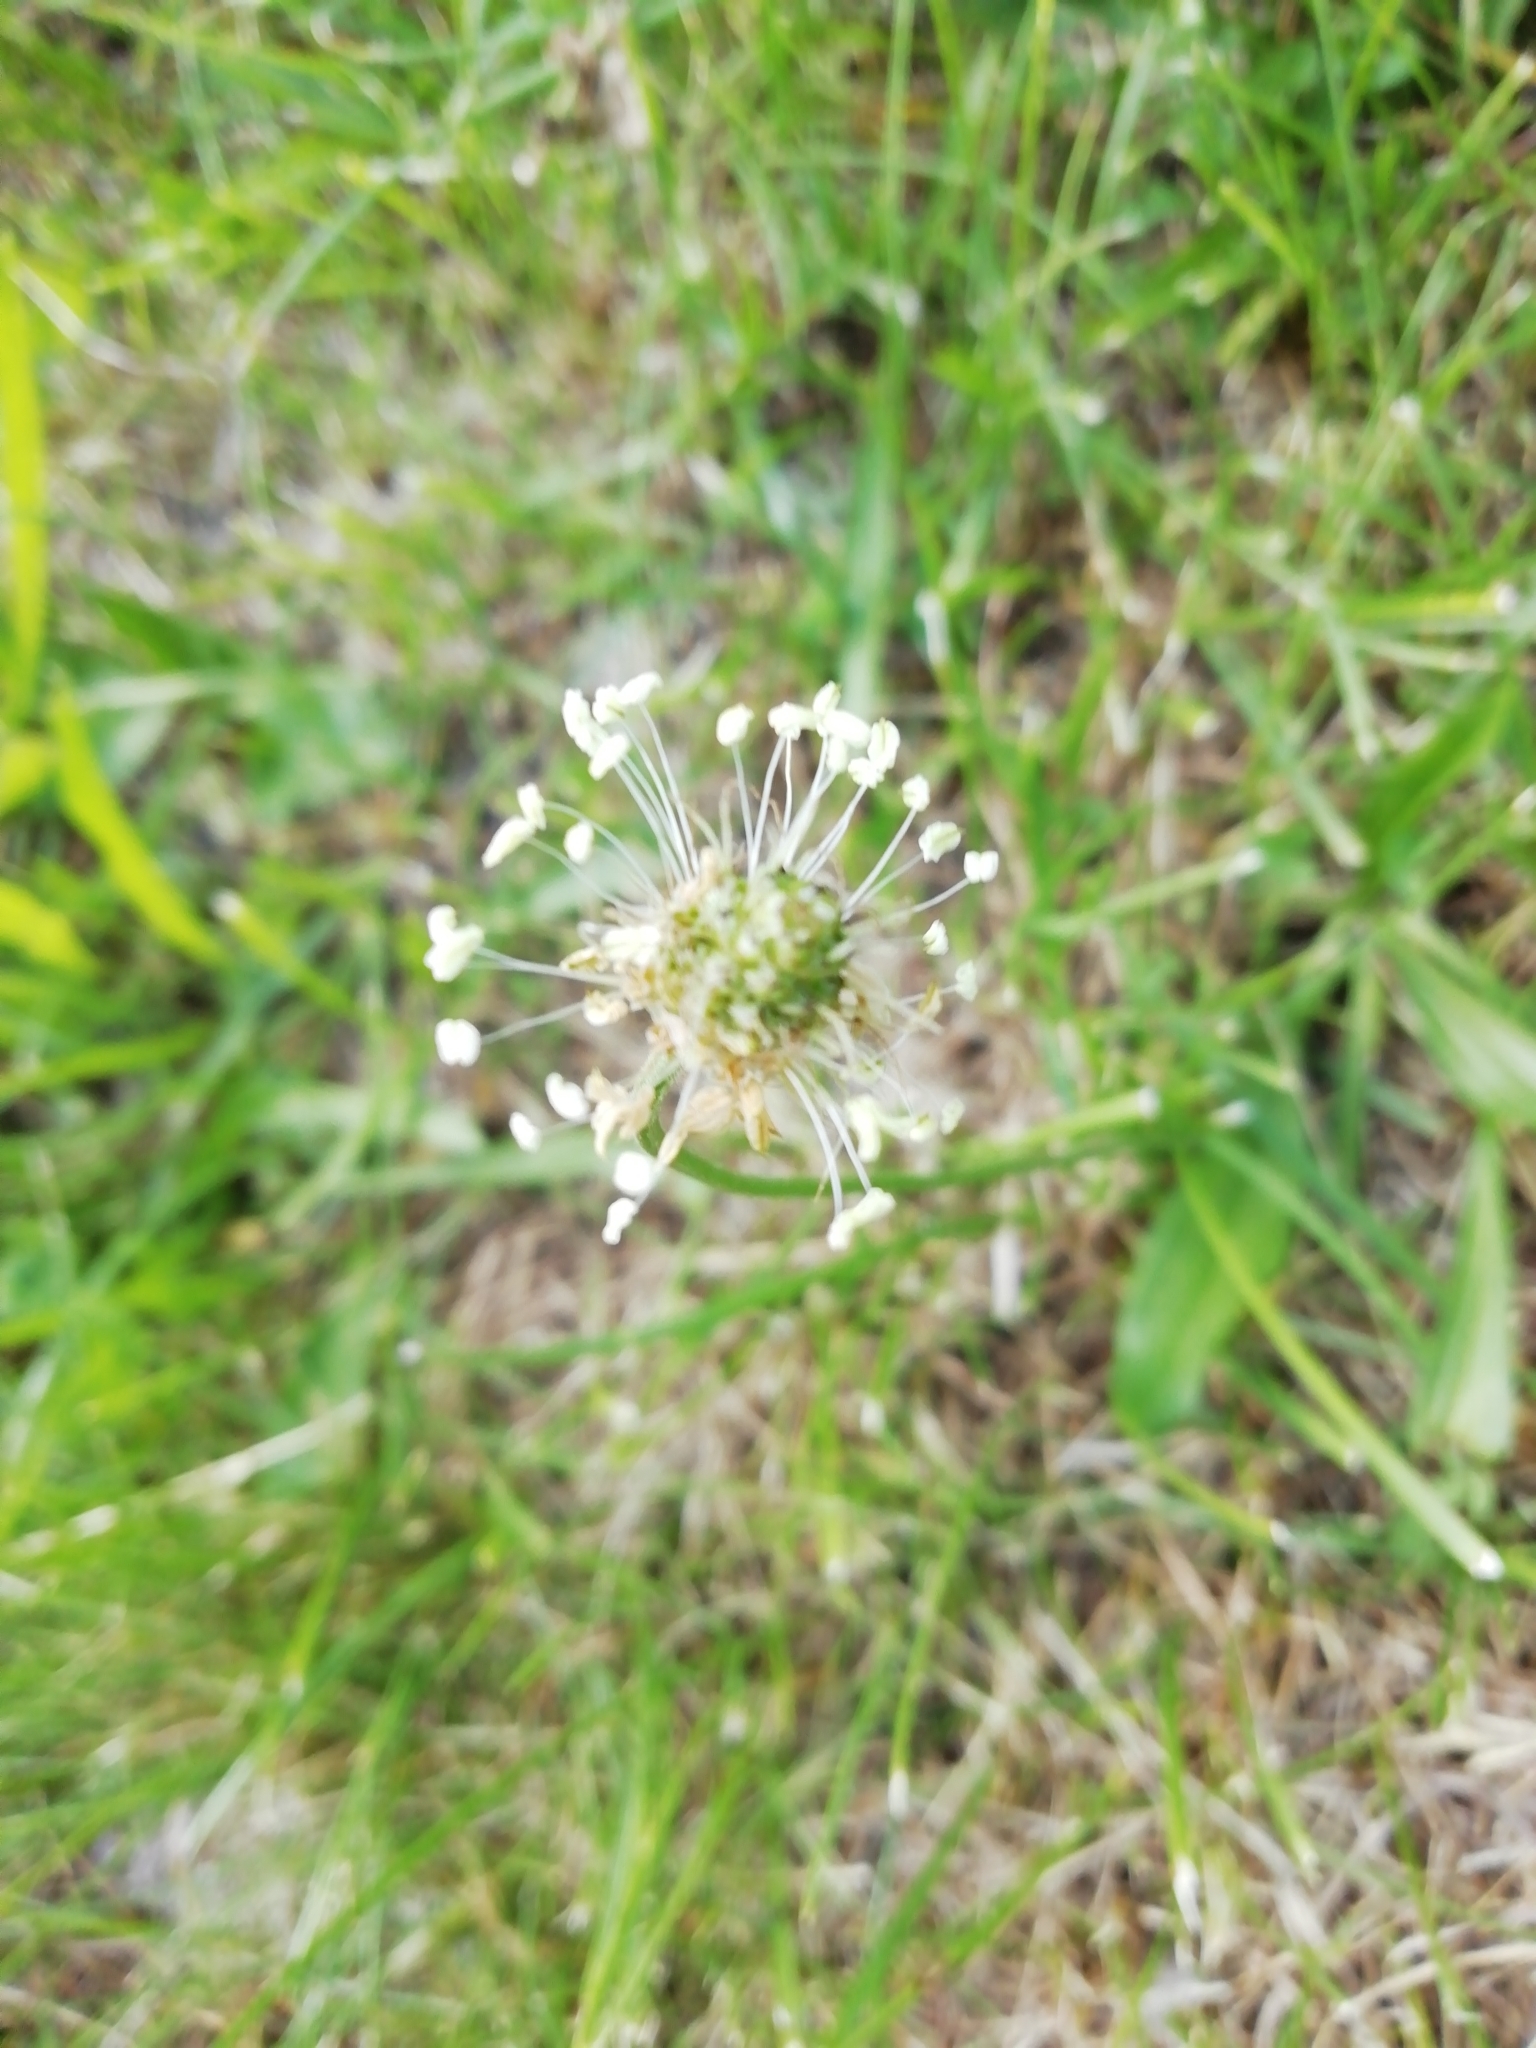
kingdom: Plantae
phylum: Tracheophyta
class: Magnoliopsida
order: Lamiales
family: Plantaginaceae
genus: Plantago
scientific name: Plantago lanceolata
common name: Ribwort plantain
